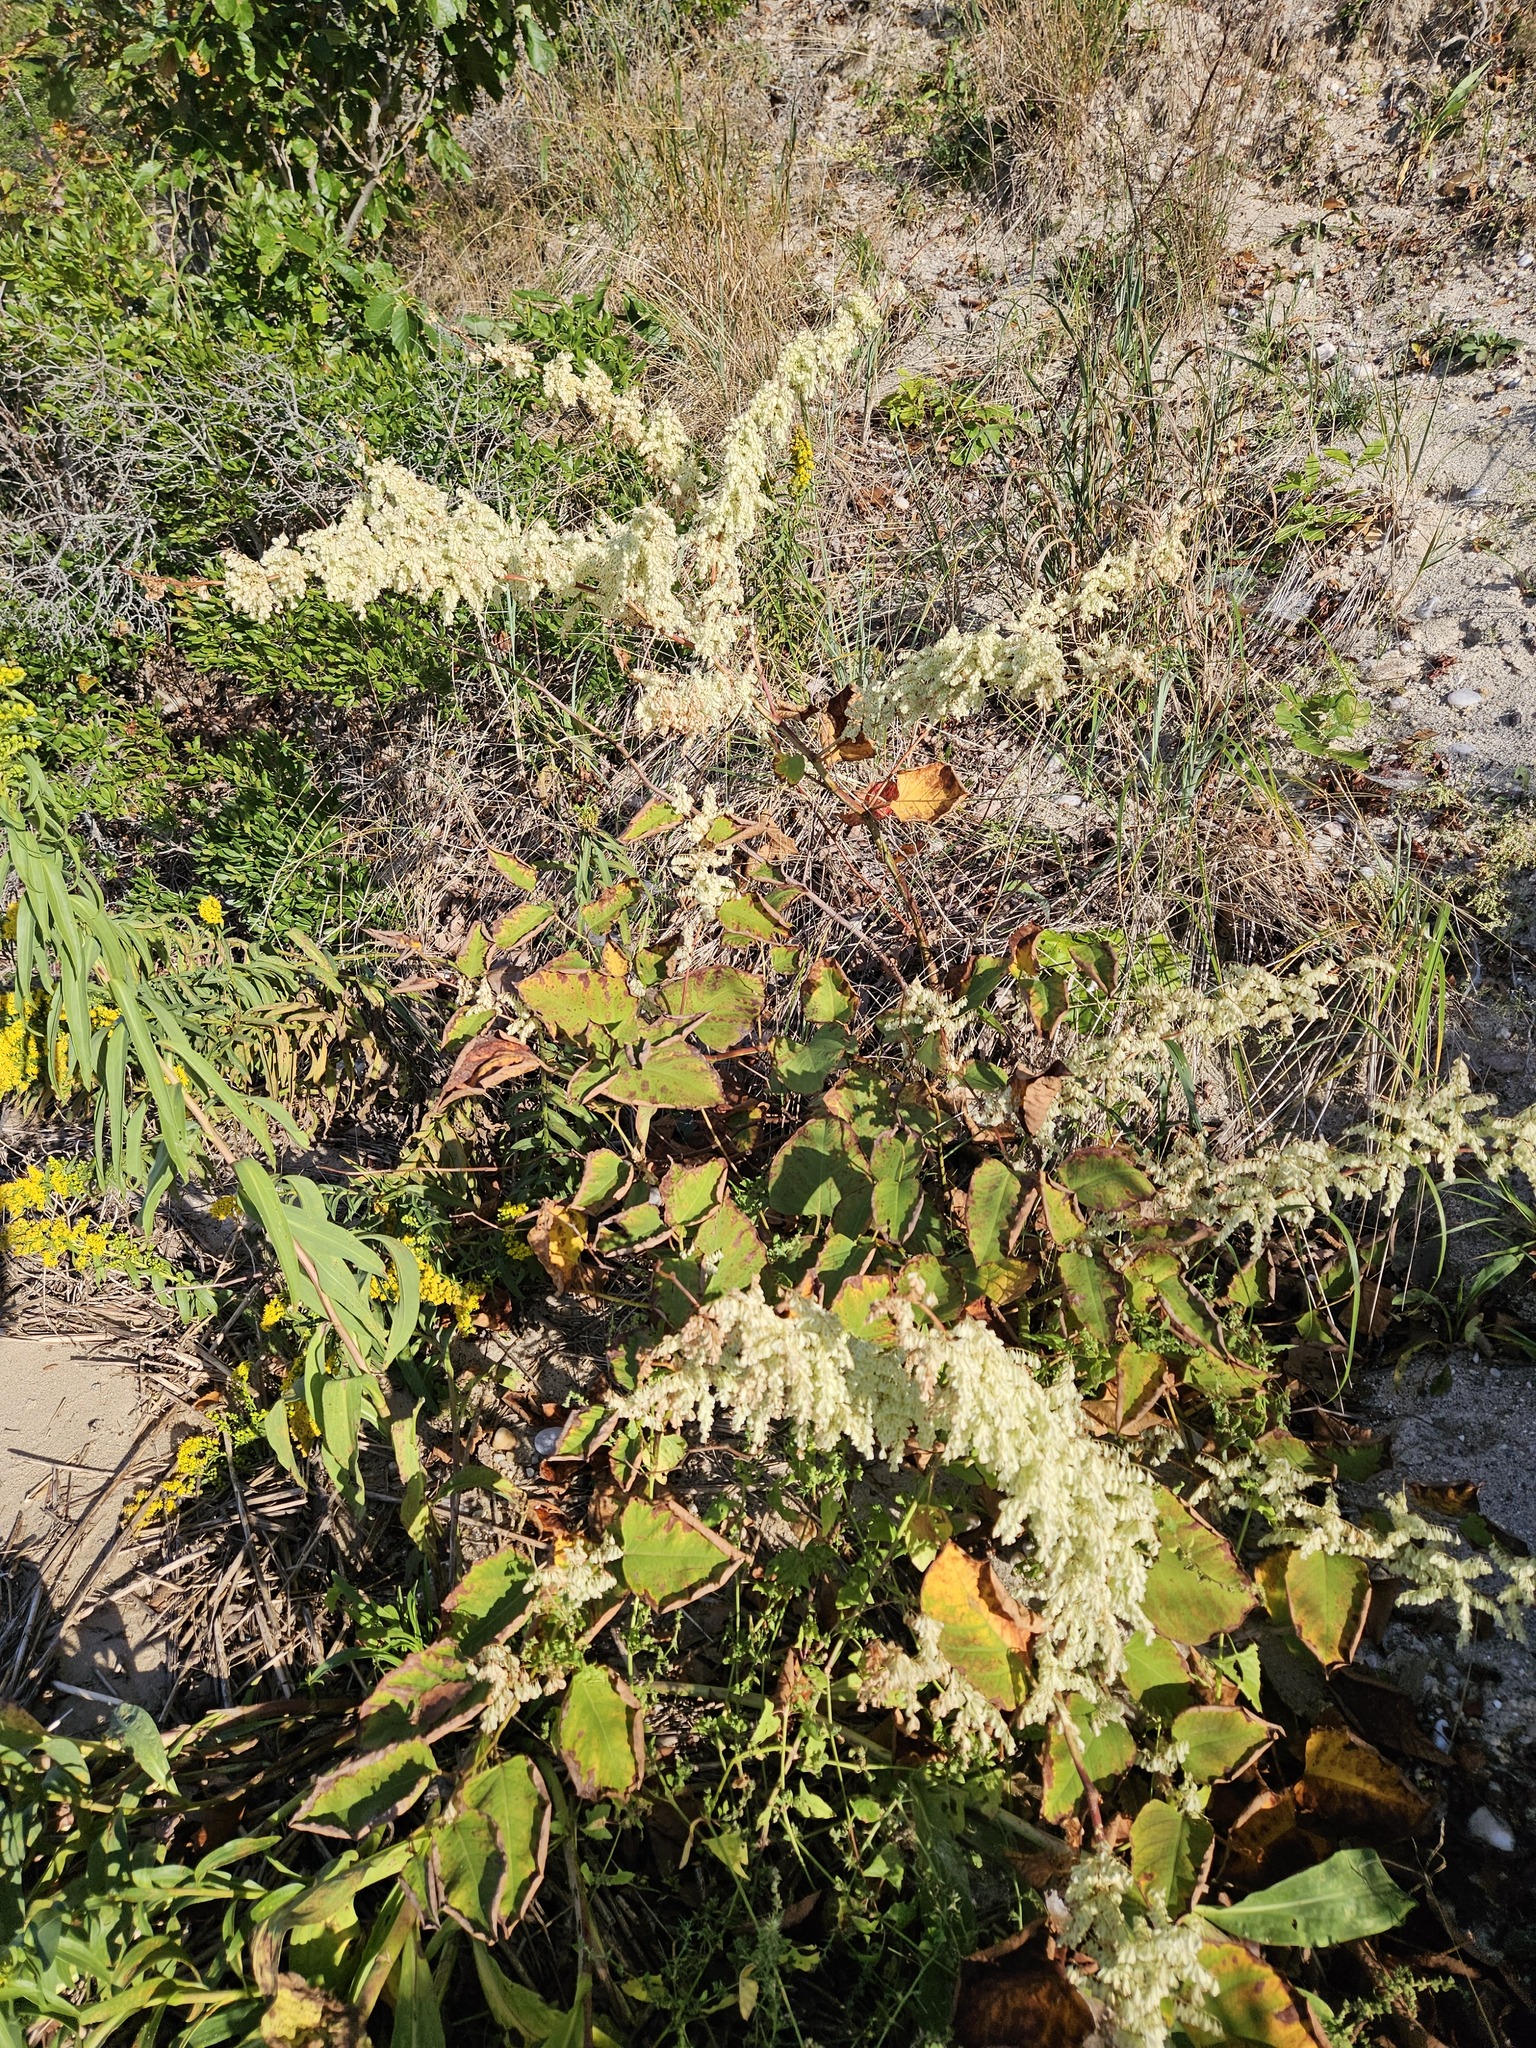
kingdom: Plantae
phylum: Tracheophyta
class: Magnoliopsida
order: Caryophyllales
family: Polygonaceae
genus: Reynoutria
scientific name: Reynoutria japonica
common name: Japanese knotweed
